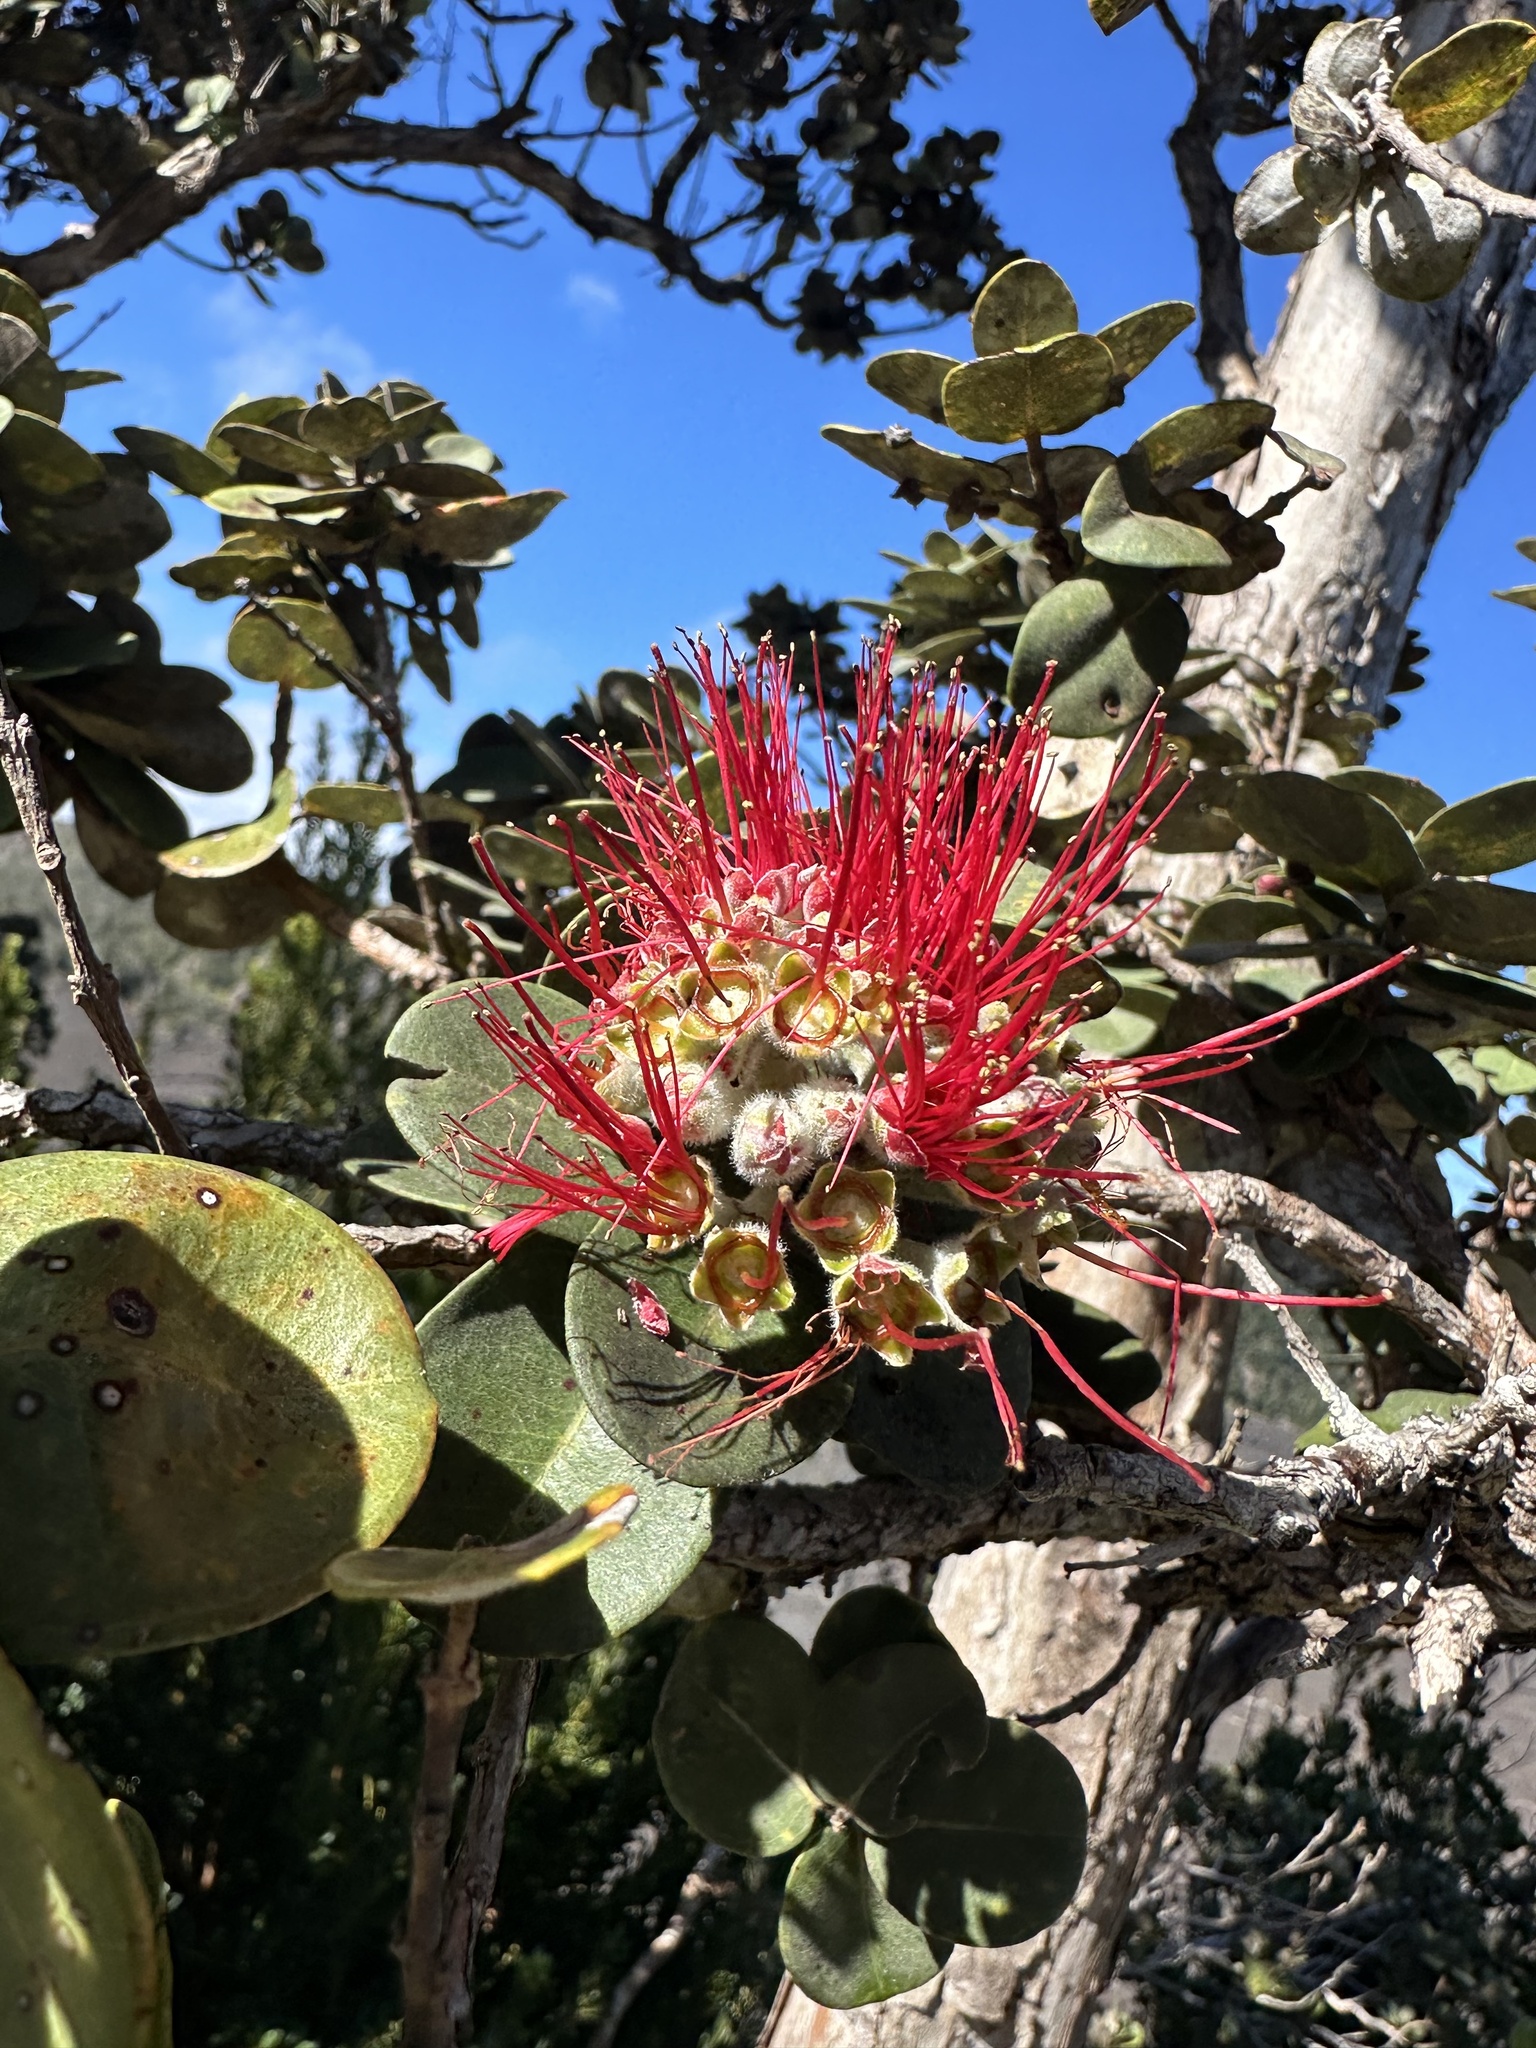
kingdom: Plantae
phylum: Tracheophyta
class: Magnoliopsida
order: Myrtales
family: Myrtaceae
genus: Metrosideros
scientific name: Metrosideros polymorpha
